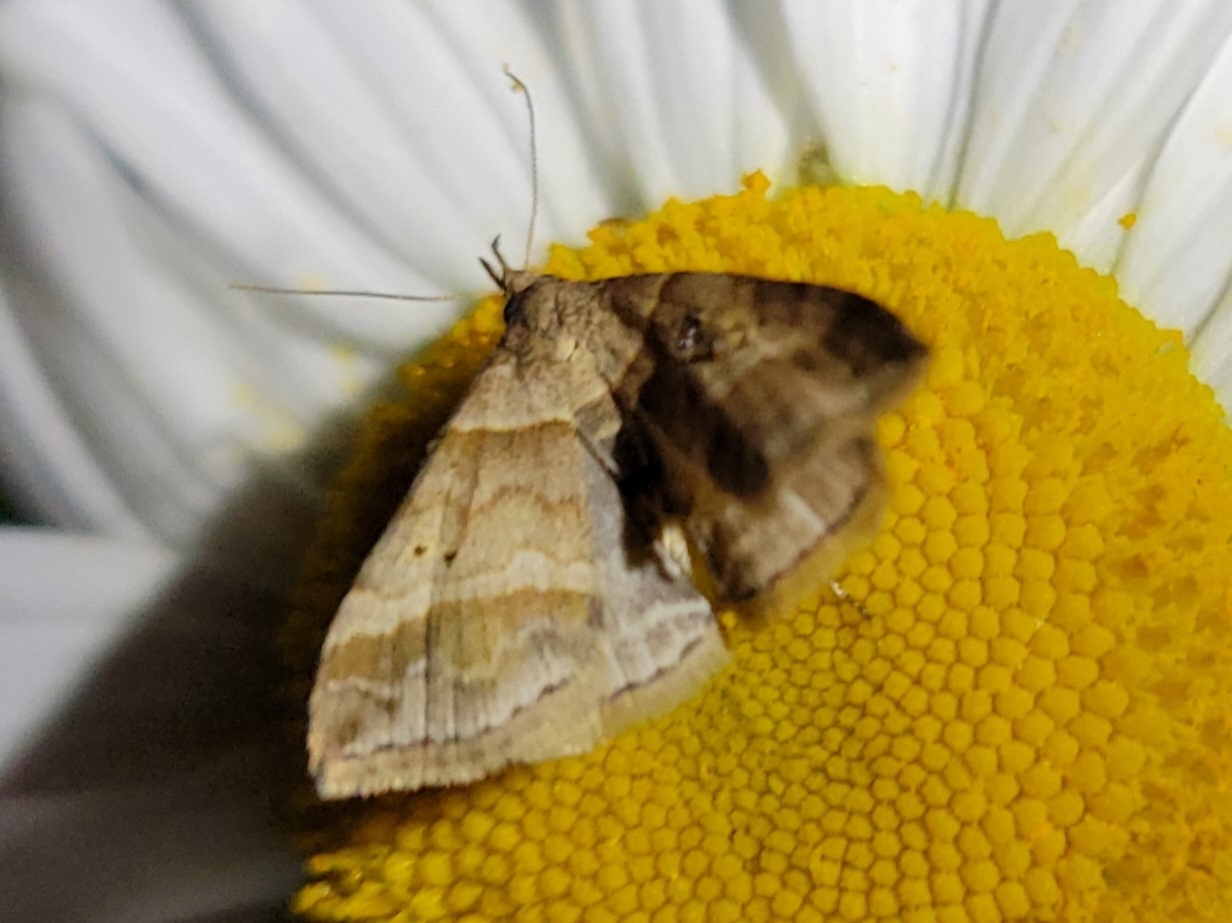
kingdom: Animalia
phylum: Arthropoda
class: Insecta
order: Lepidoptera
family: Erebidae
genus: Phaeolita
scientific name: Phaeolita pyramusalis
